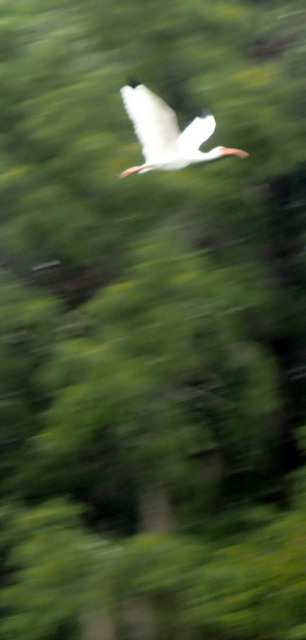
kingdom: Animalia
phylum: Chordata
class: Aves
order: Pelecaniformes
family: Threskiornithidae
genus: Eudocimus
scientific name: Eudocimus albus
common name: White ibis
